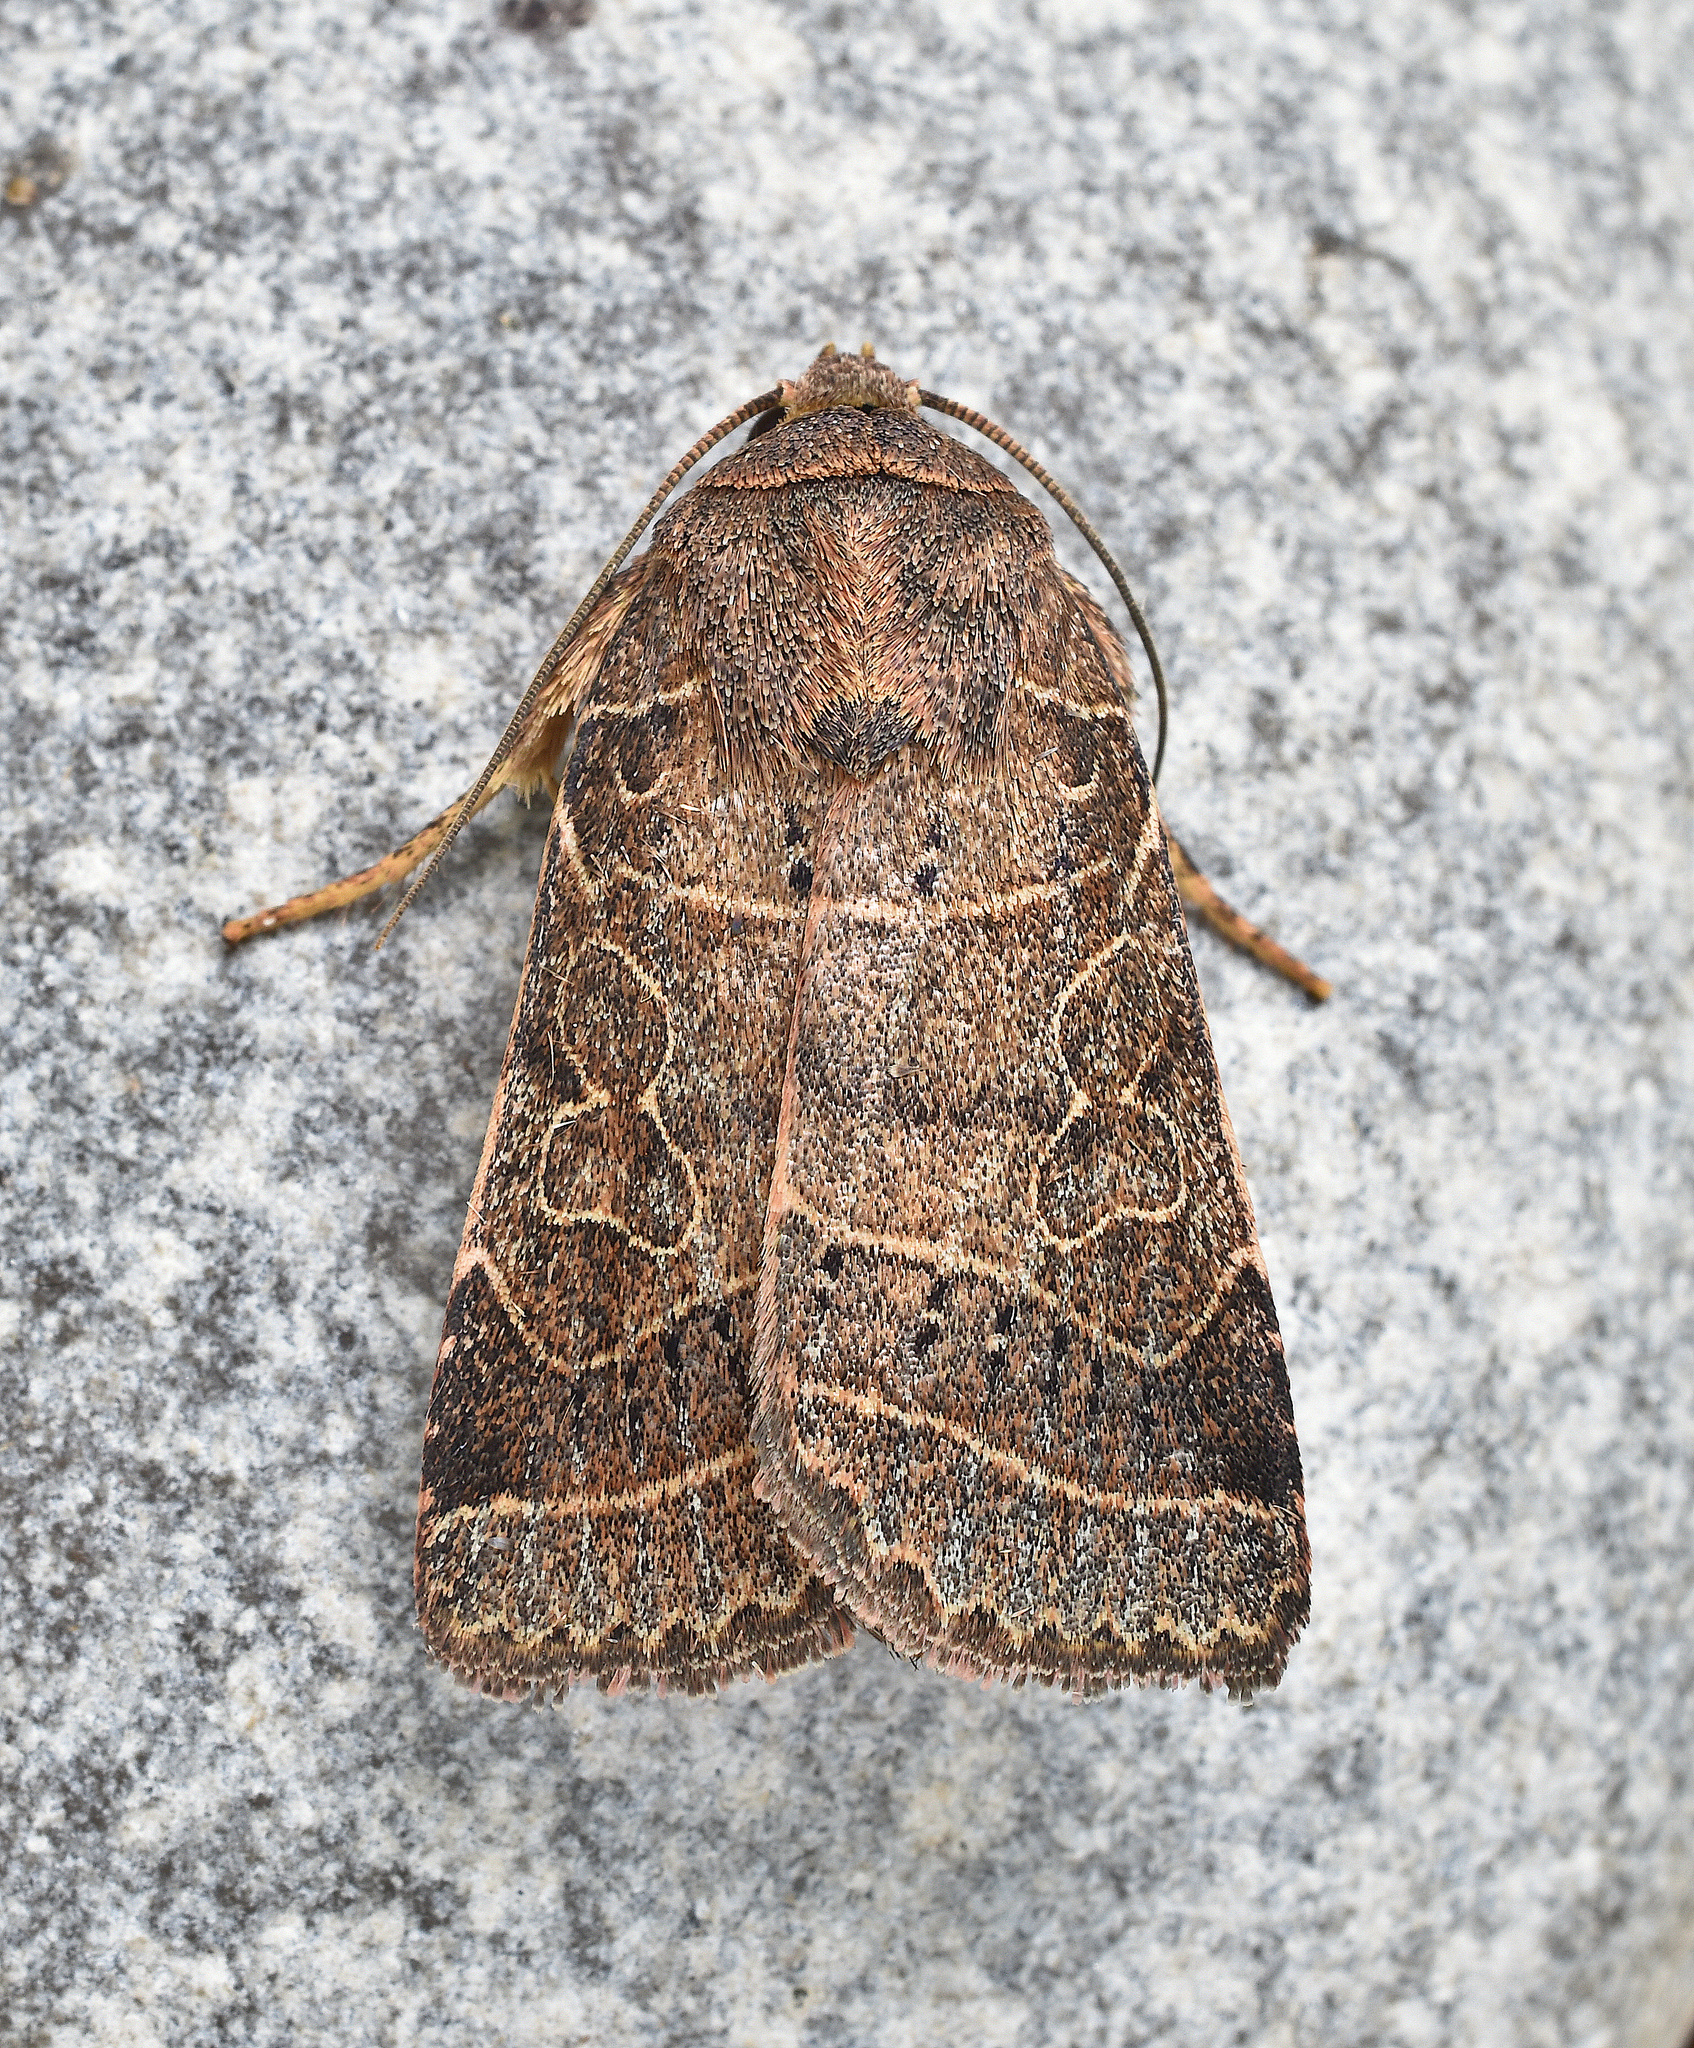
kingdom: Animalia
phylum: Arthropoda
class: Insecta
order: Lepidoptera
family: Noctuidae
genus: Orthodes
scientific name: Orthodes majuscula
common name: Rustic quaker
